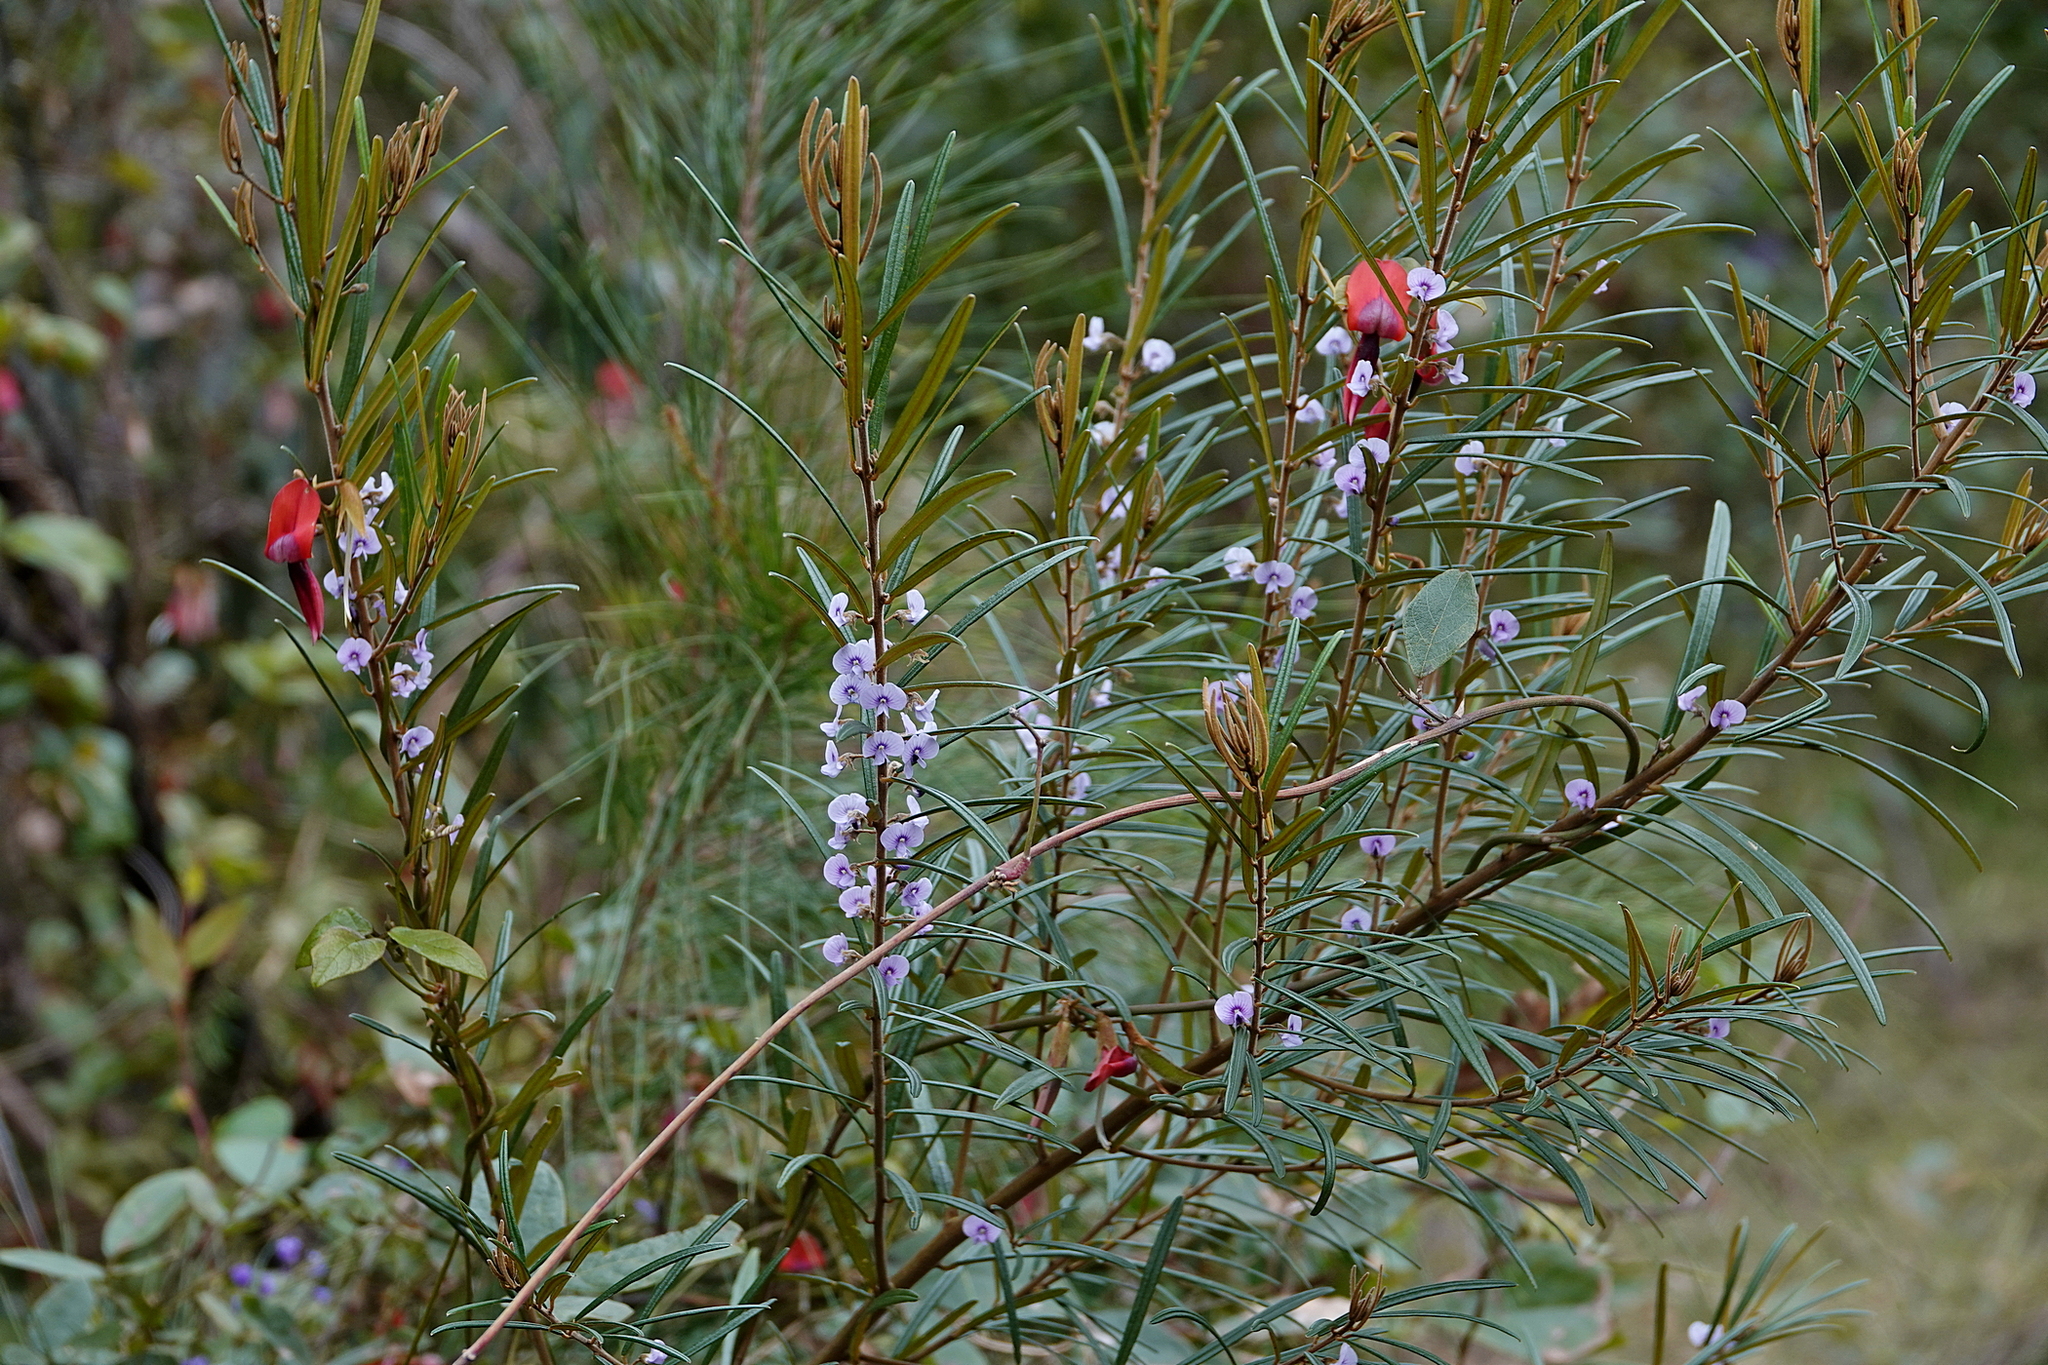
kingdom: Plantae
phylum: Tracheophyta
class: Magnoliopsida
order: Fabales
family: Fabaceae
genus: Hovea
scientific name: Hovea longifolia
